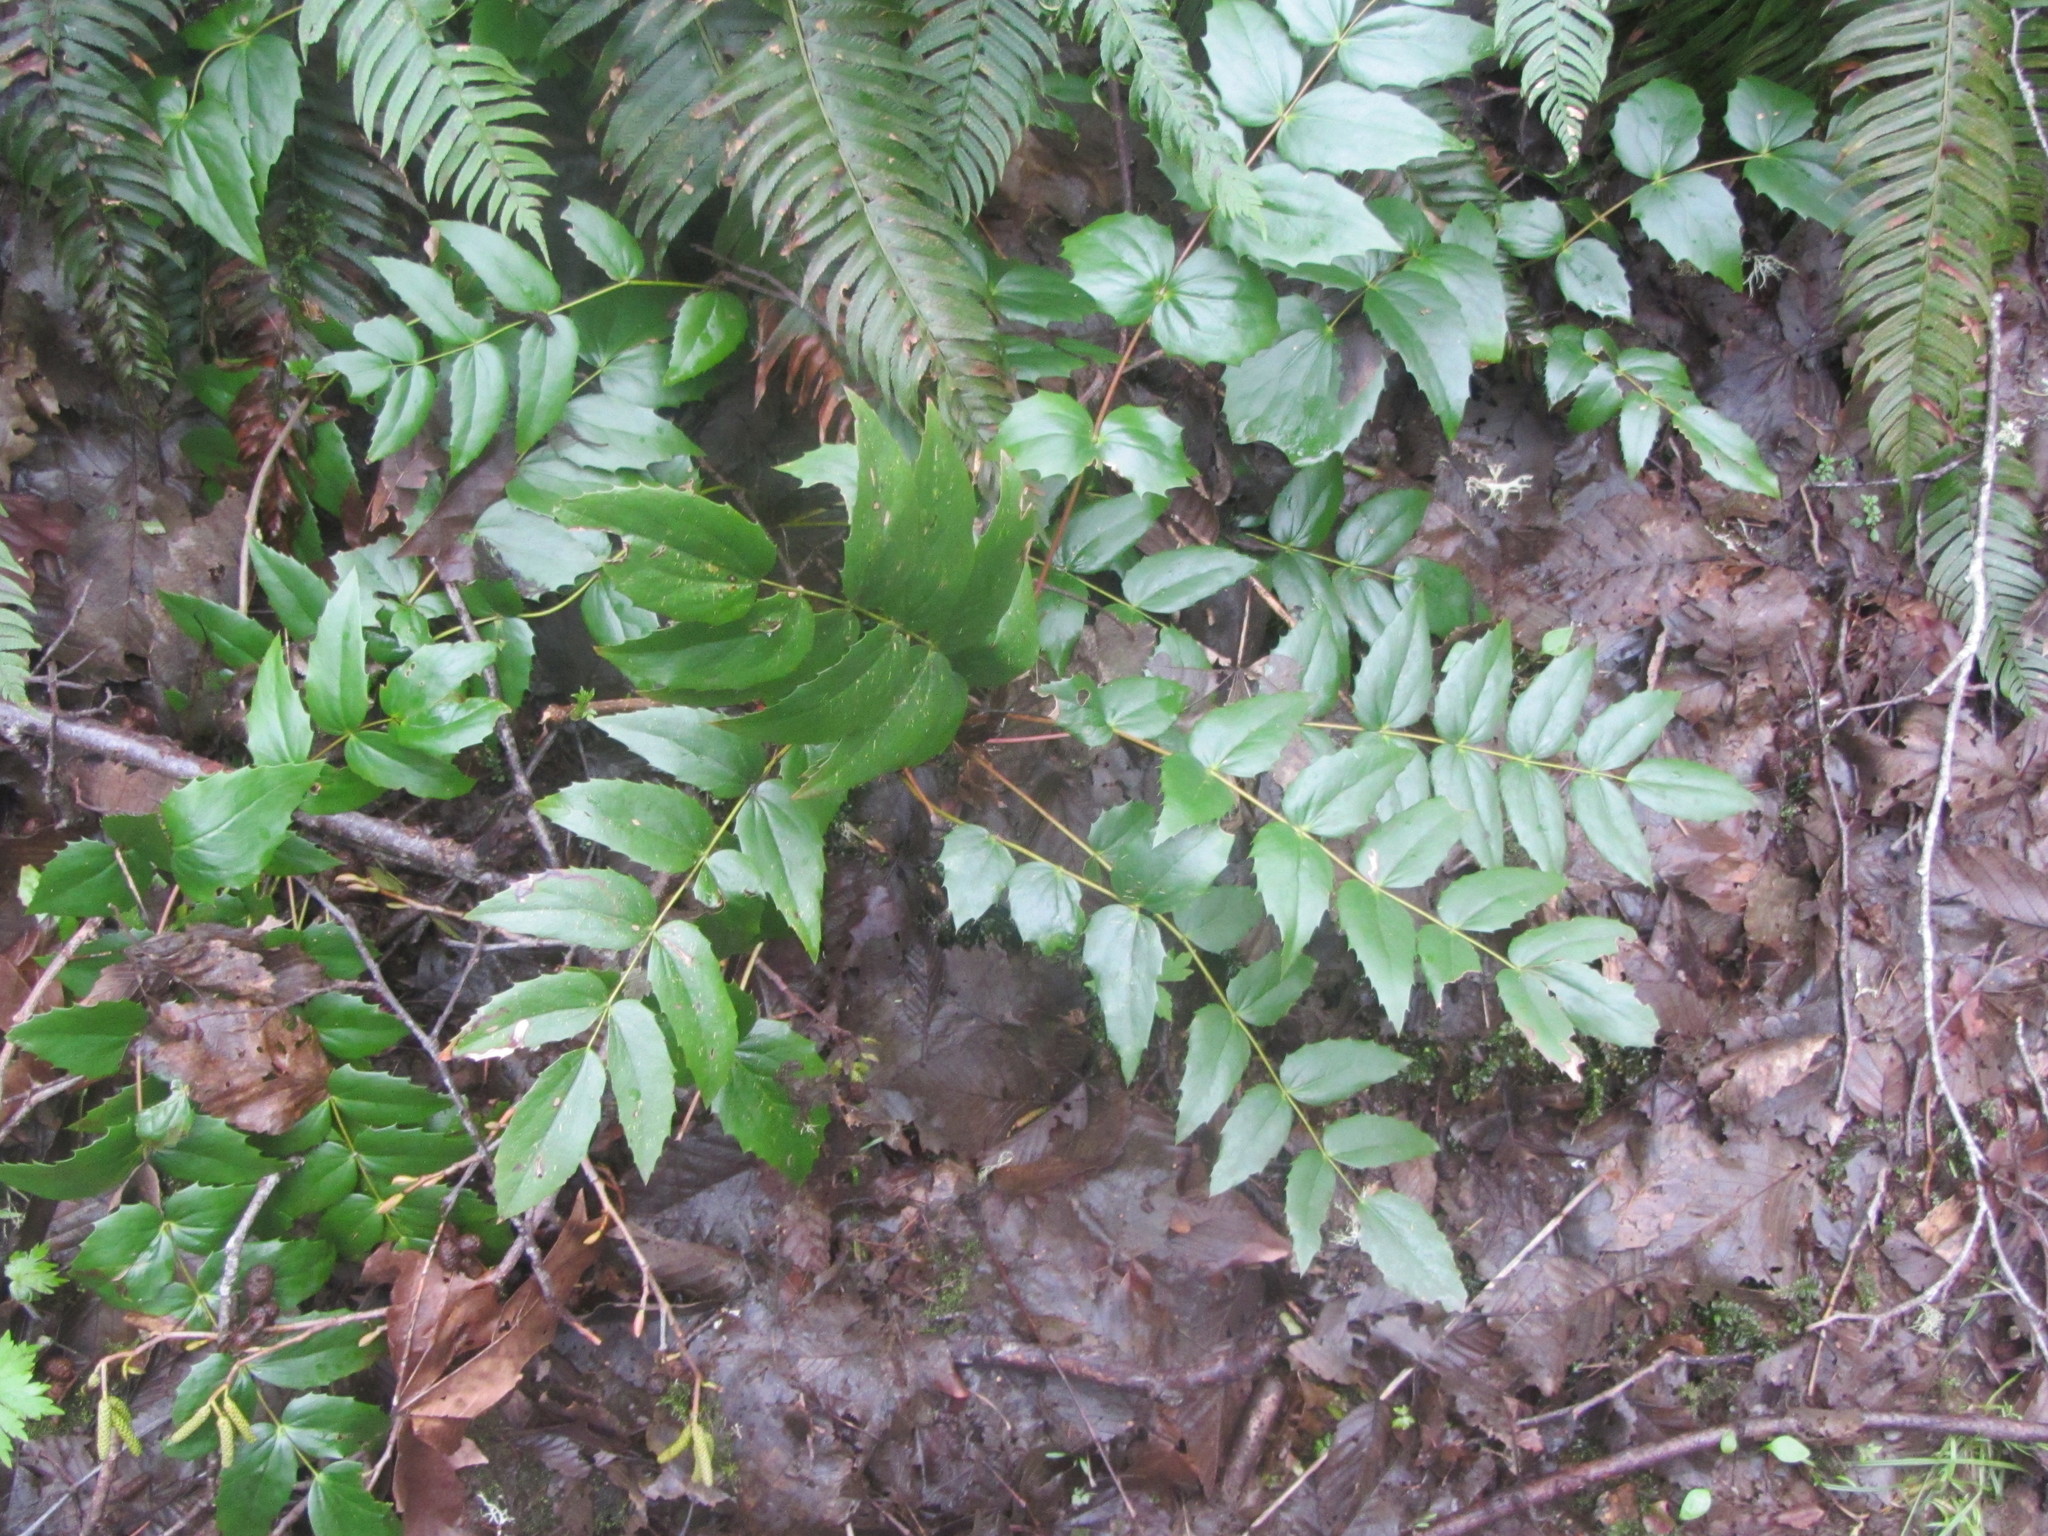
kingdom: Plantae
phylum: Tracheophyta
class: Magnoliopsida
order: Ranunculales
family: Berberidaceae
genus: Mahonia
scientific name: Mahonia nervosa
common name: Cascade oregon-grape
